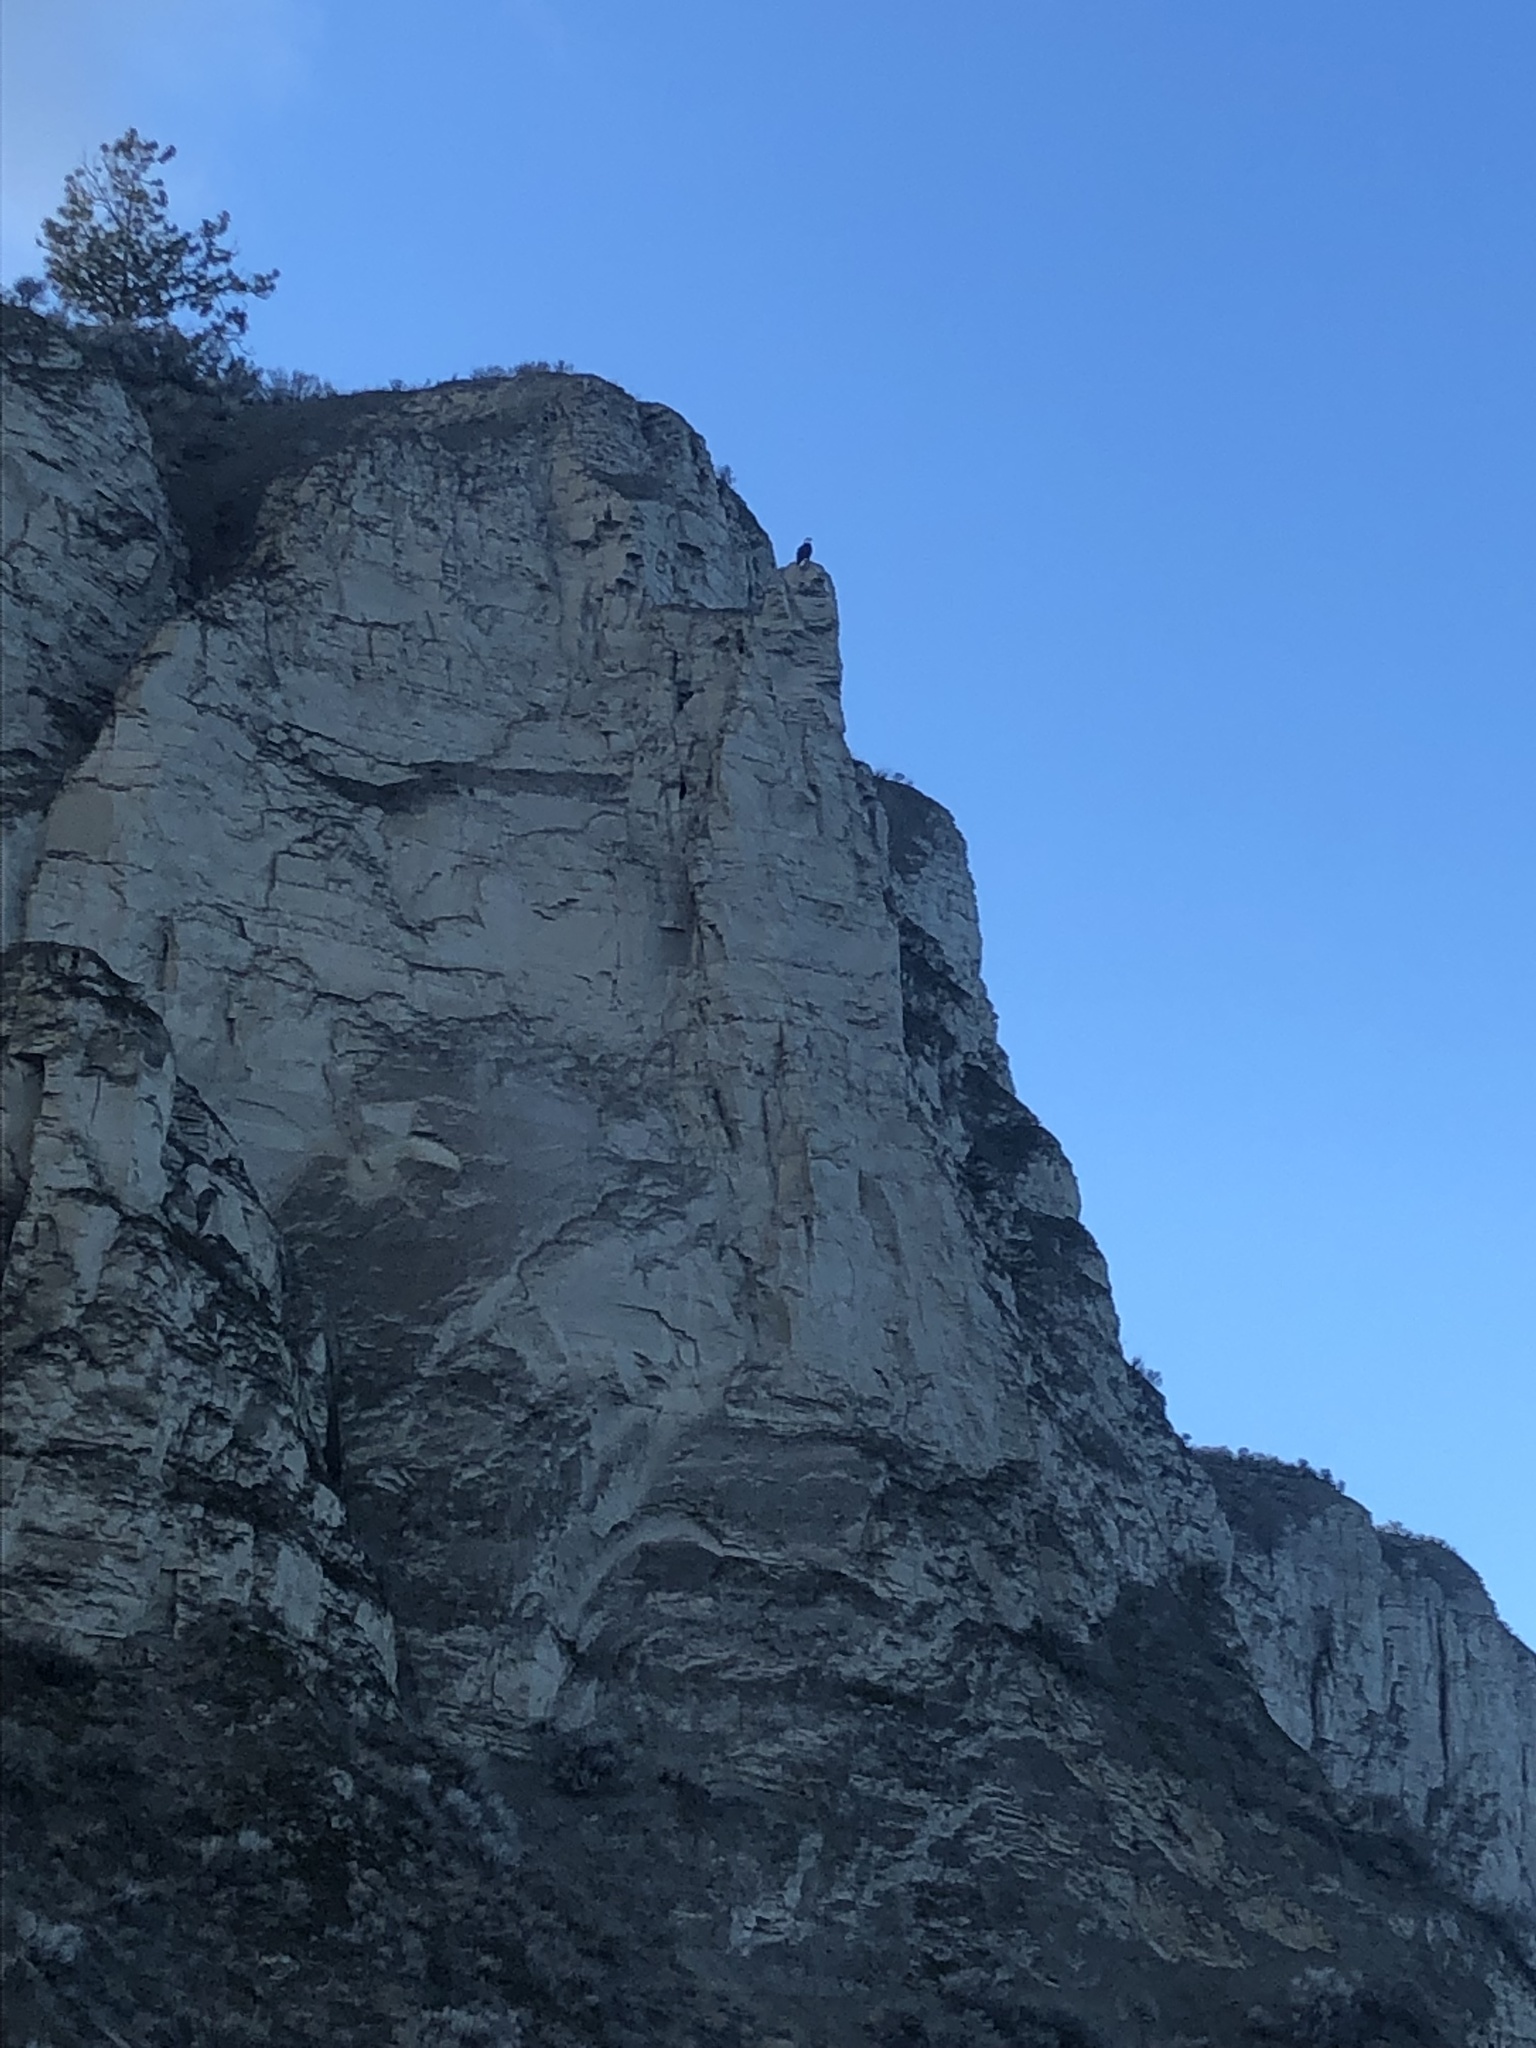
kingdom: Animalia
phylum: Chordata
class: Aves
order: Accipitriformes
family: Accipitridae
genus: Haliaeetus
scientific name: Haliaeetus leucocephalus
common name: Bald eagle
